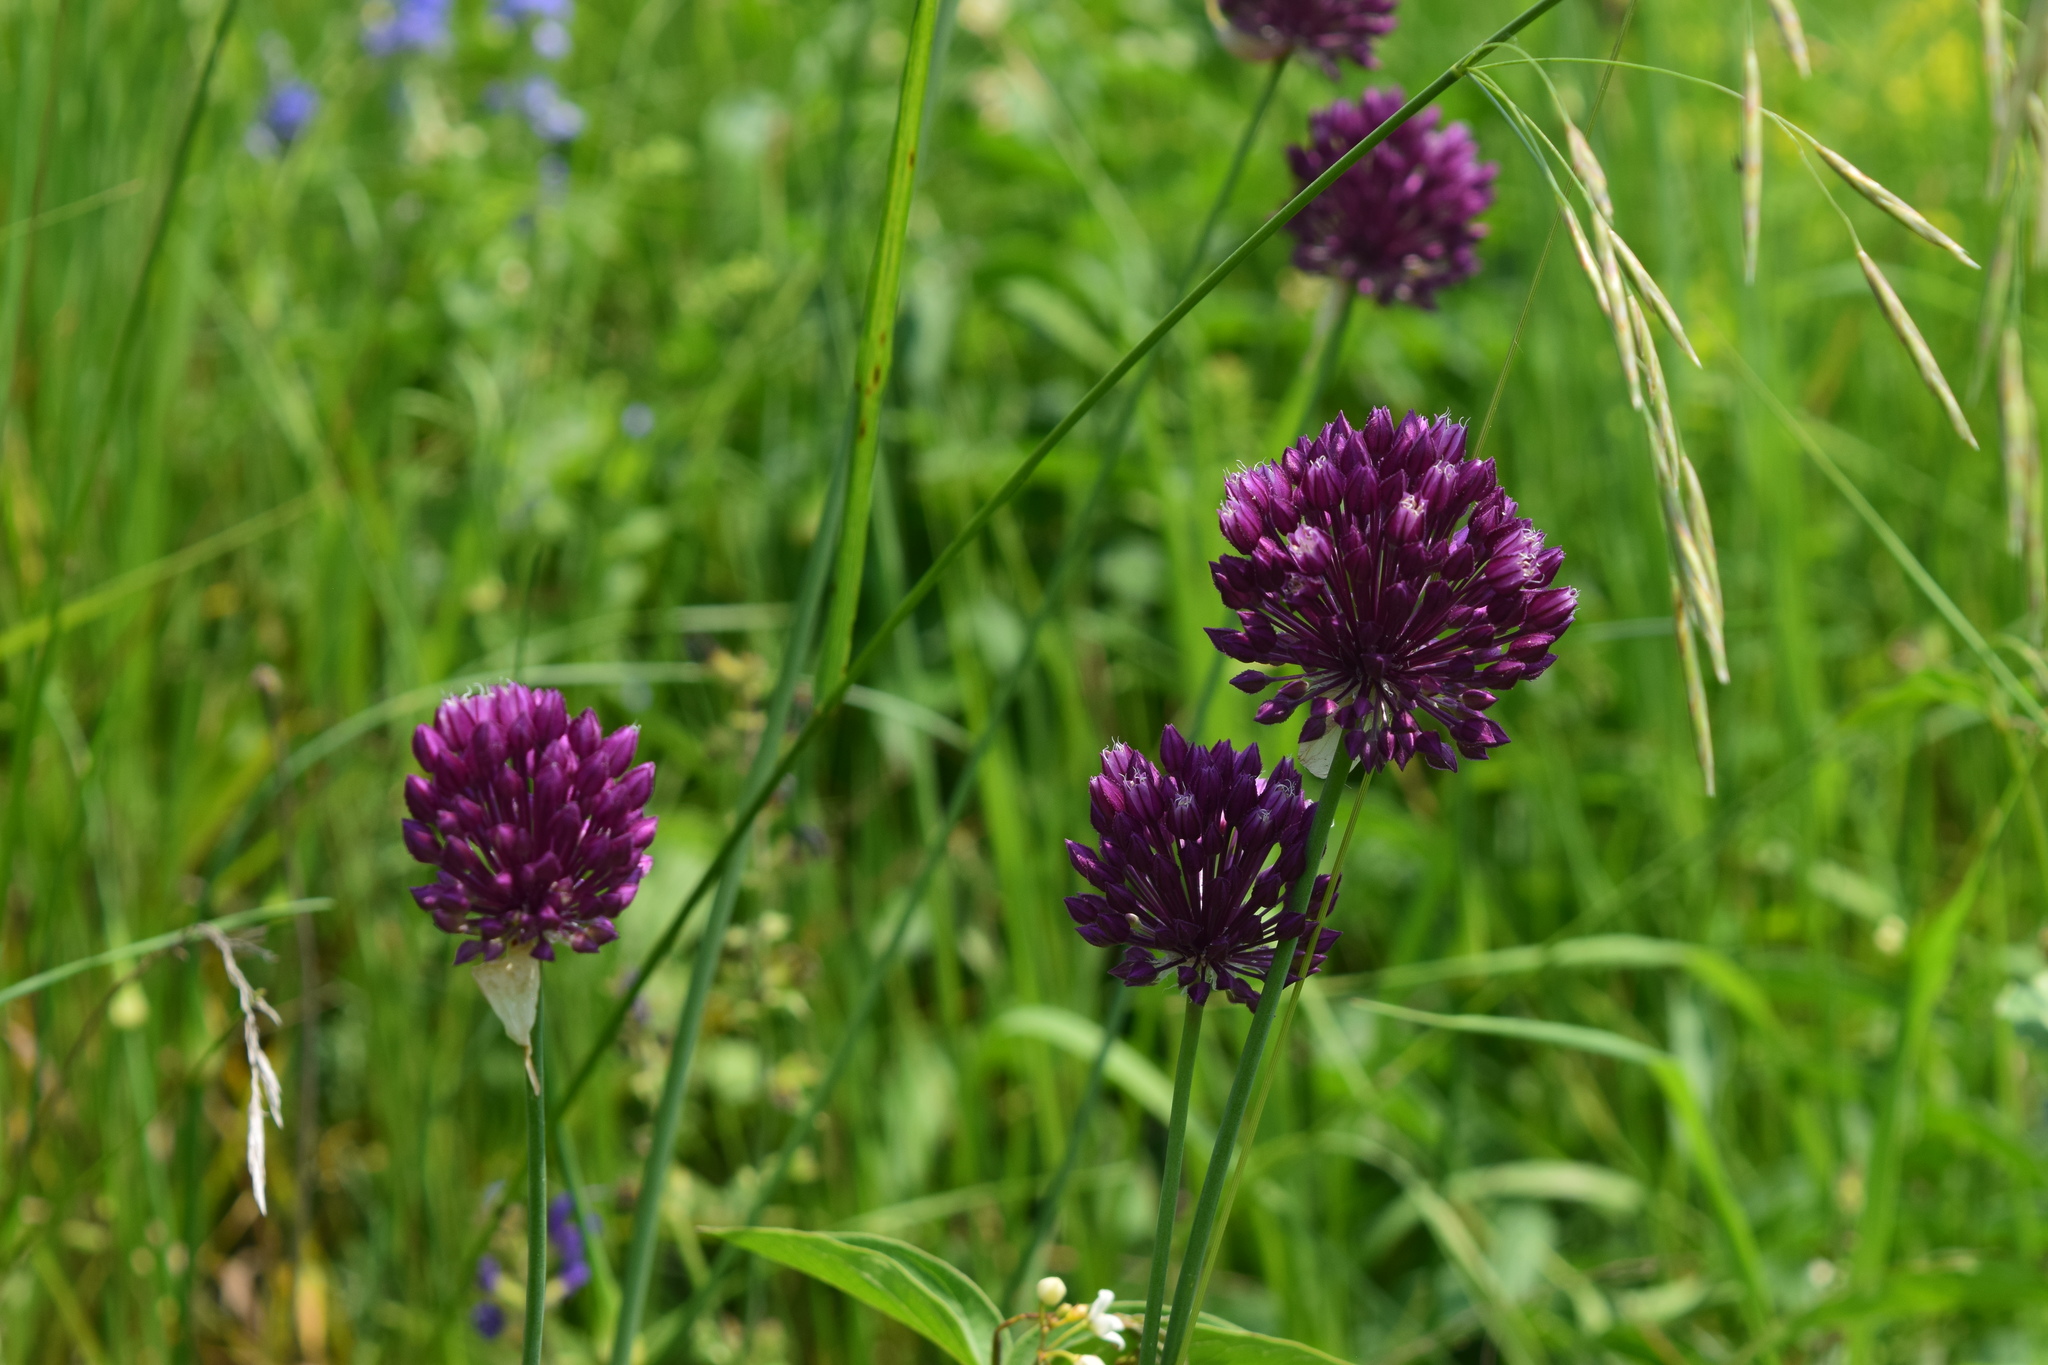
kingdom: Plantae
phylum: Tracheophyta
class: Liliopsida
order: Asparagales
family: Amaryllidaceae
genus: Allium
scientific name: Allium rotundum
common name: Sand leek
